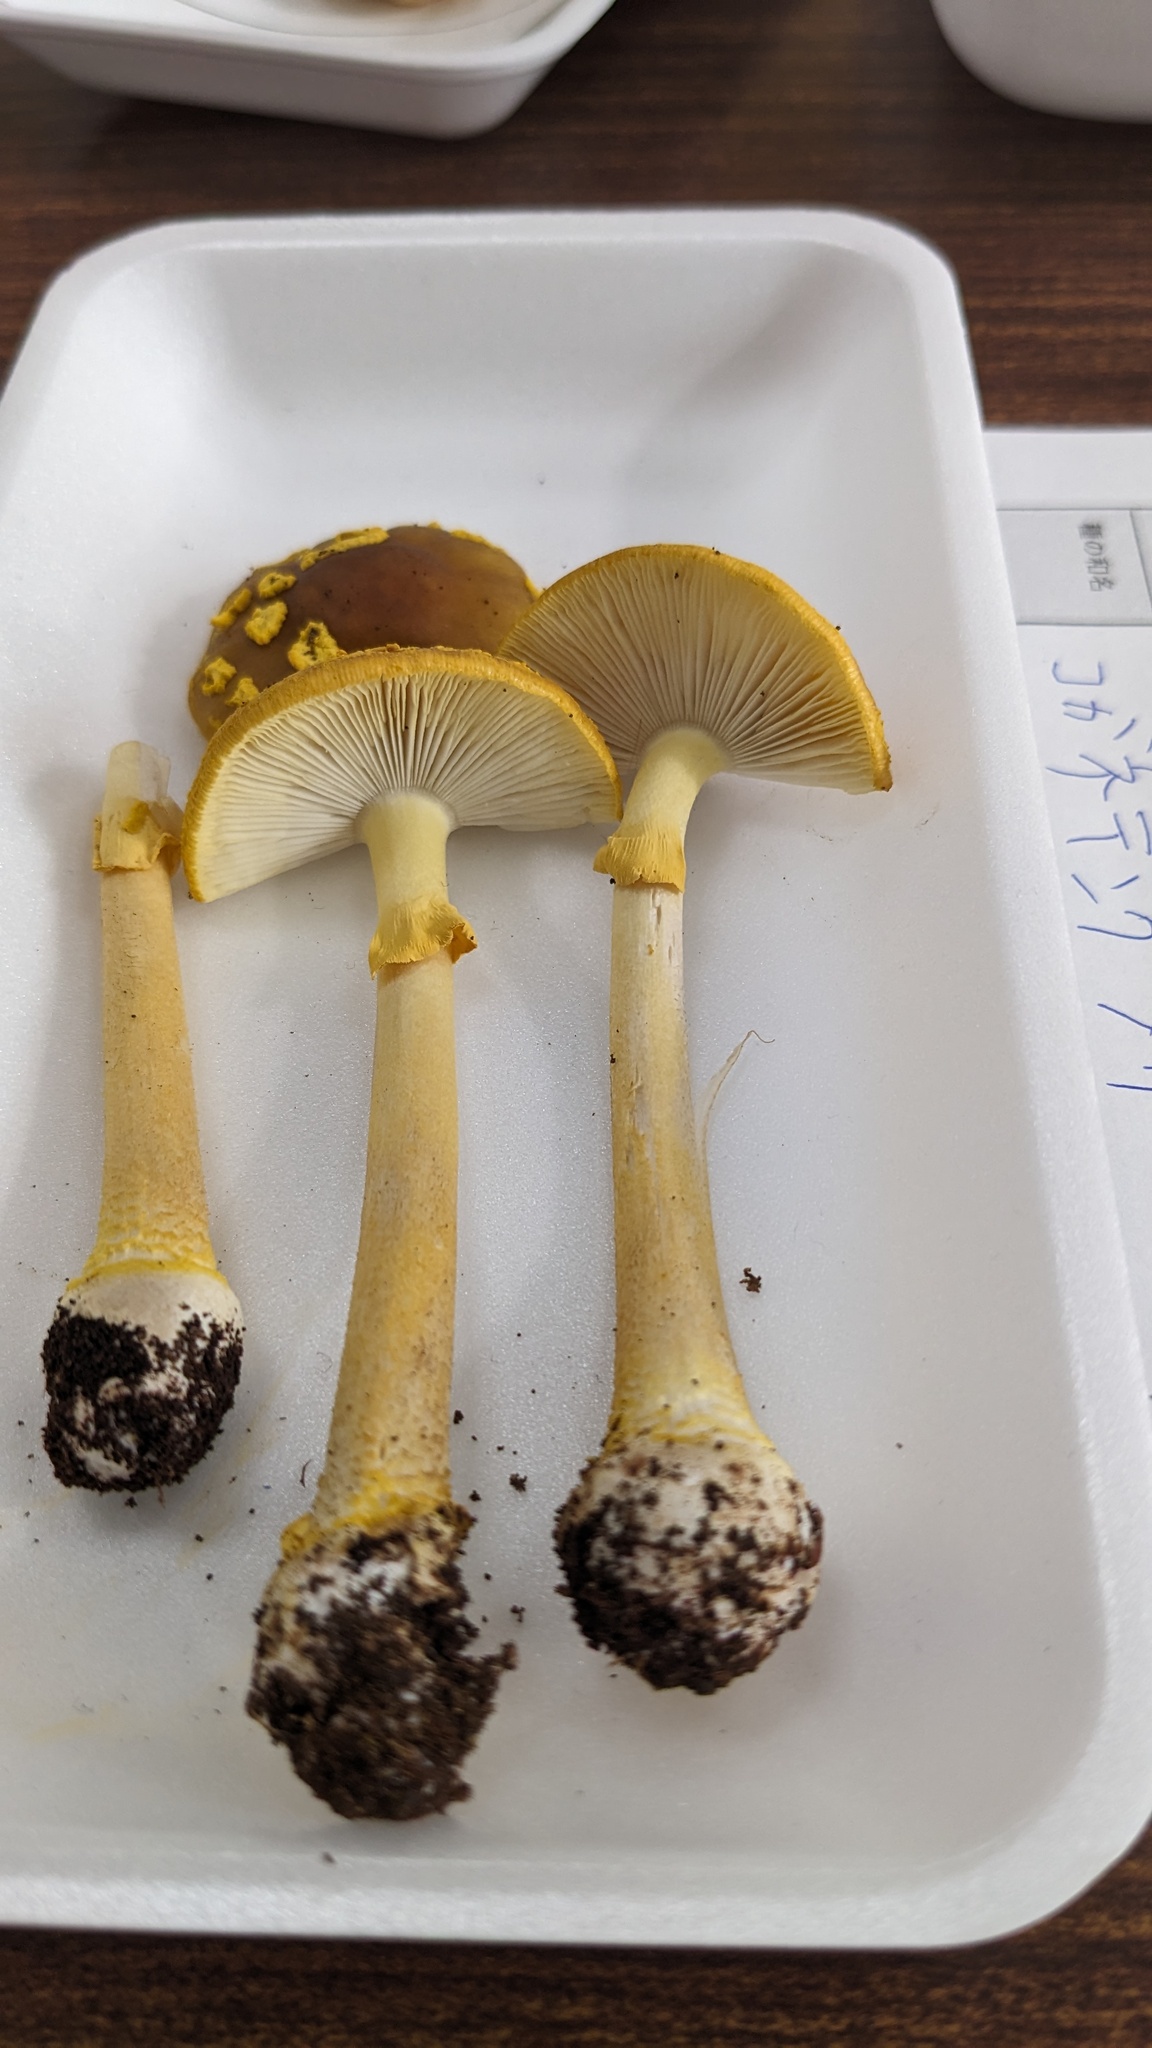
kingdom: Fungi
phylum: Basidiomycota
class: Agaricomycetes
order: Agaricales
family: Amanitaceae
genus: Amanita
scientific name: Amanita flavipes
